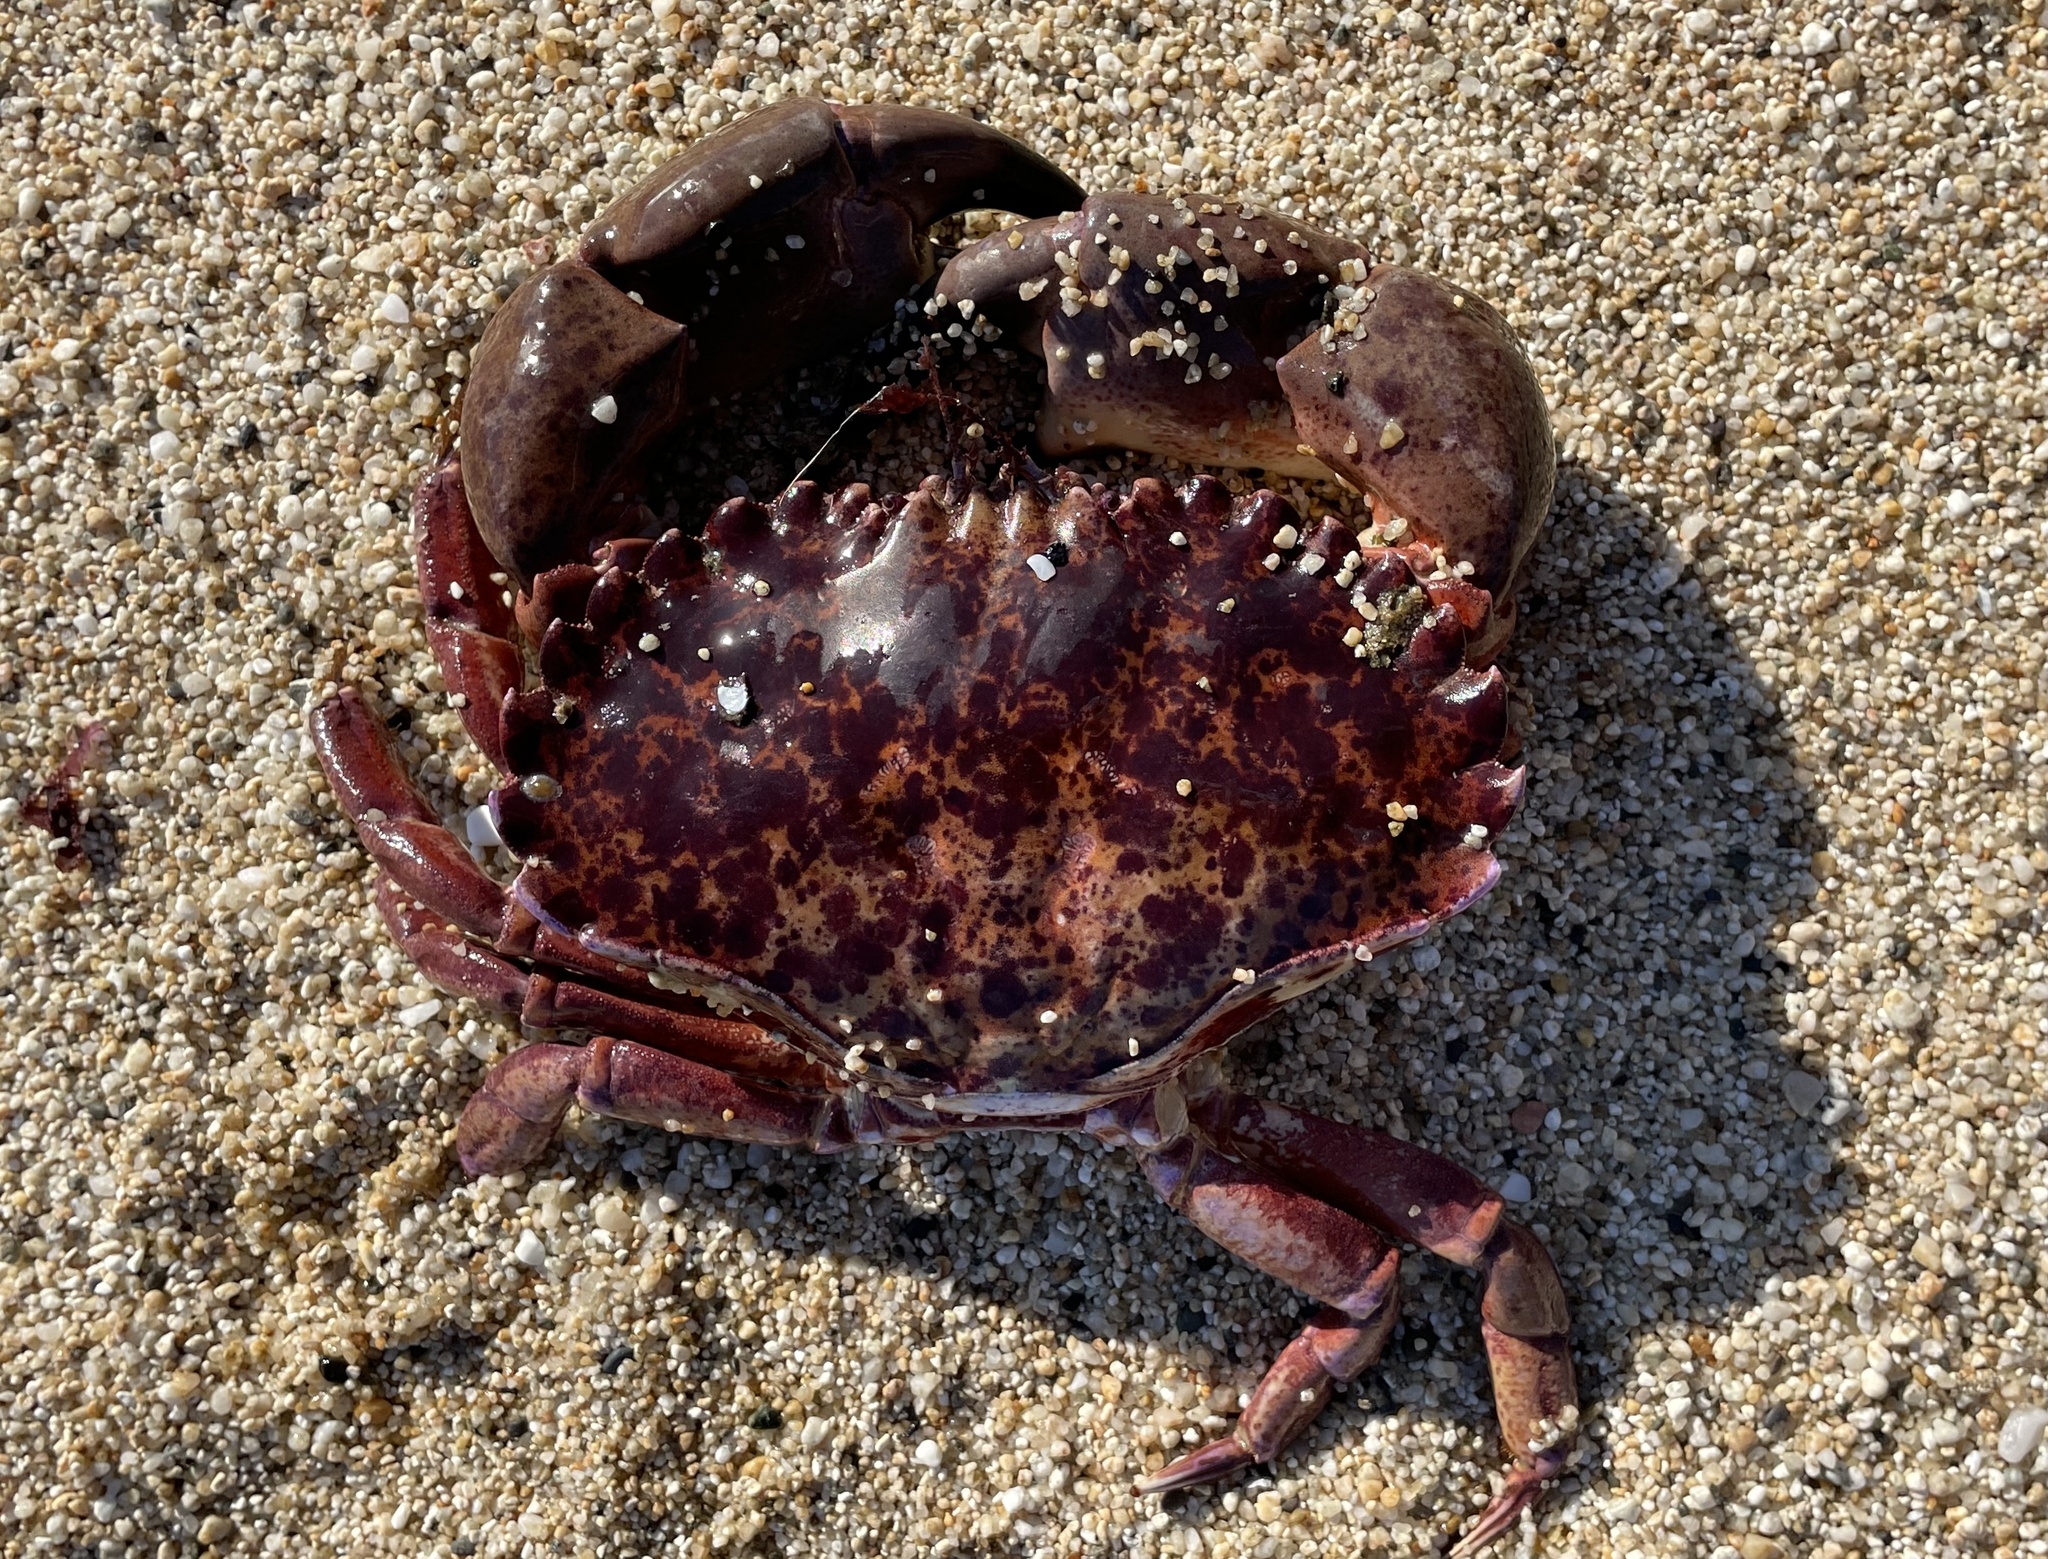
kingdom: Animalia
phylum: Arthropoda
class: Malacostraca
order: Decapoda
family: Cancridae
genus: Romaleon
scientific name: Romaleon antennarium
